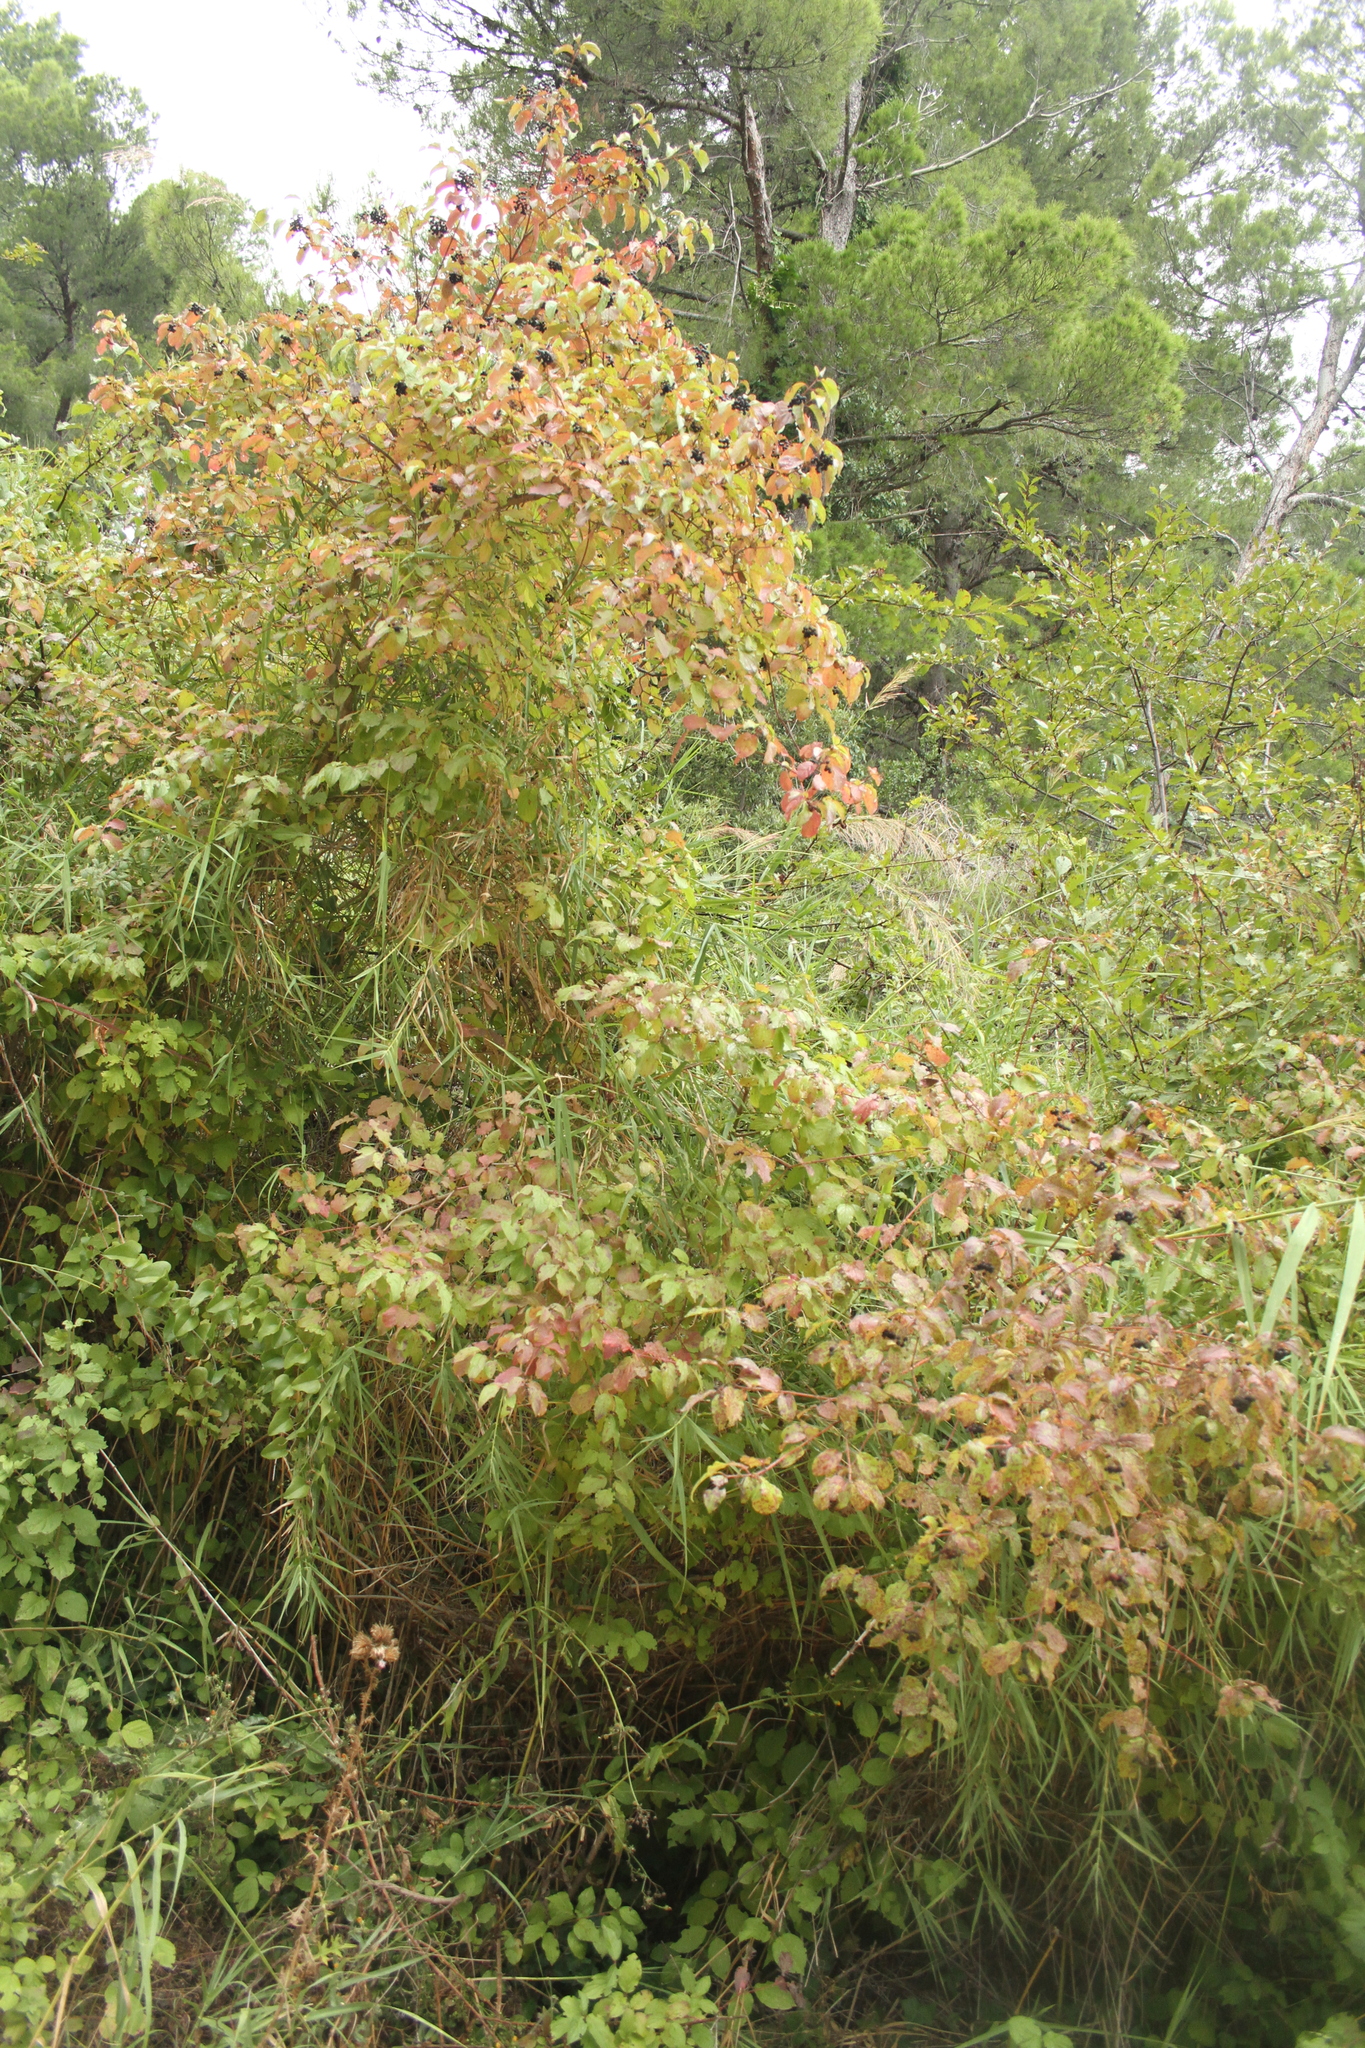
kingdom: Plantae
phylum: Tracheophyta
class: Magnoliopsida
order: Cornales
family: Cornaceae
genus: Cornus
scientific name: Cornus sanguinea
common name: Dogwood
